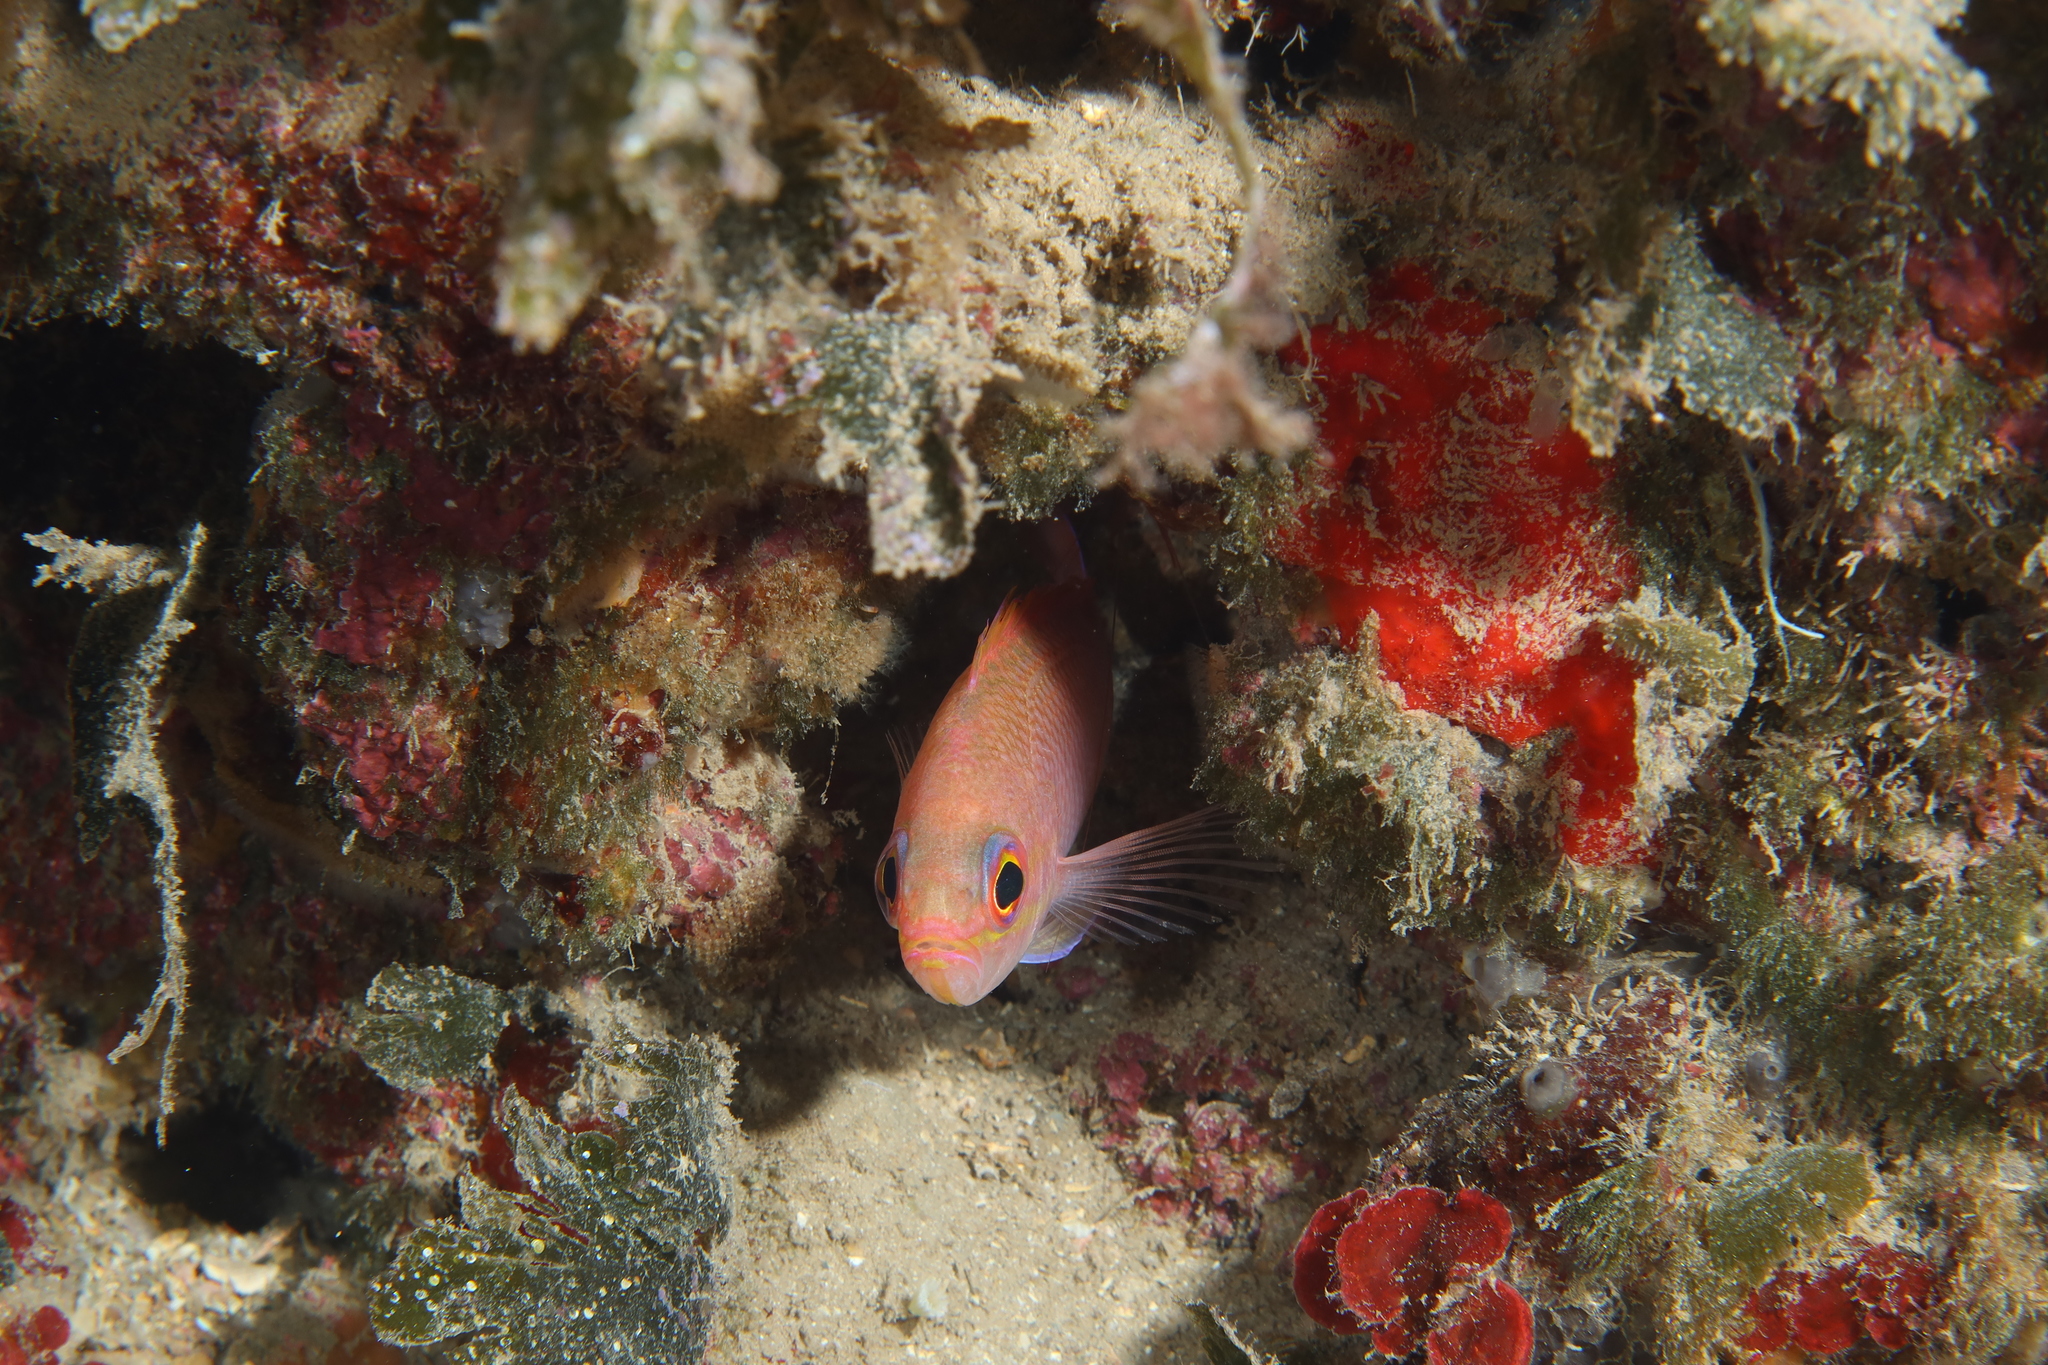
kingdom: Animalia
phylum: Chordata
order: Perciformes
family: Serranidae
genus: Anthias
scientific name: Anthias anthias
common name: Swallowtail seaperch
